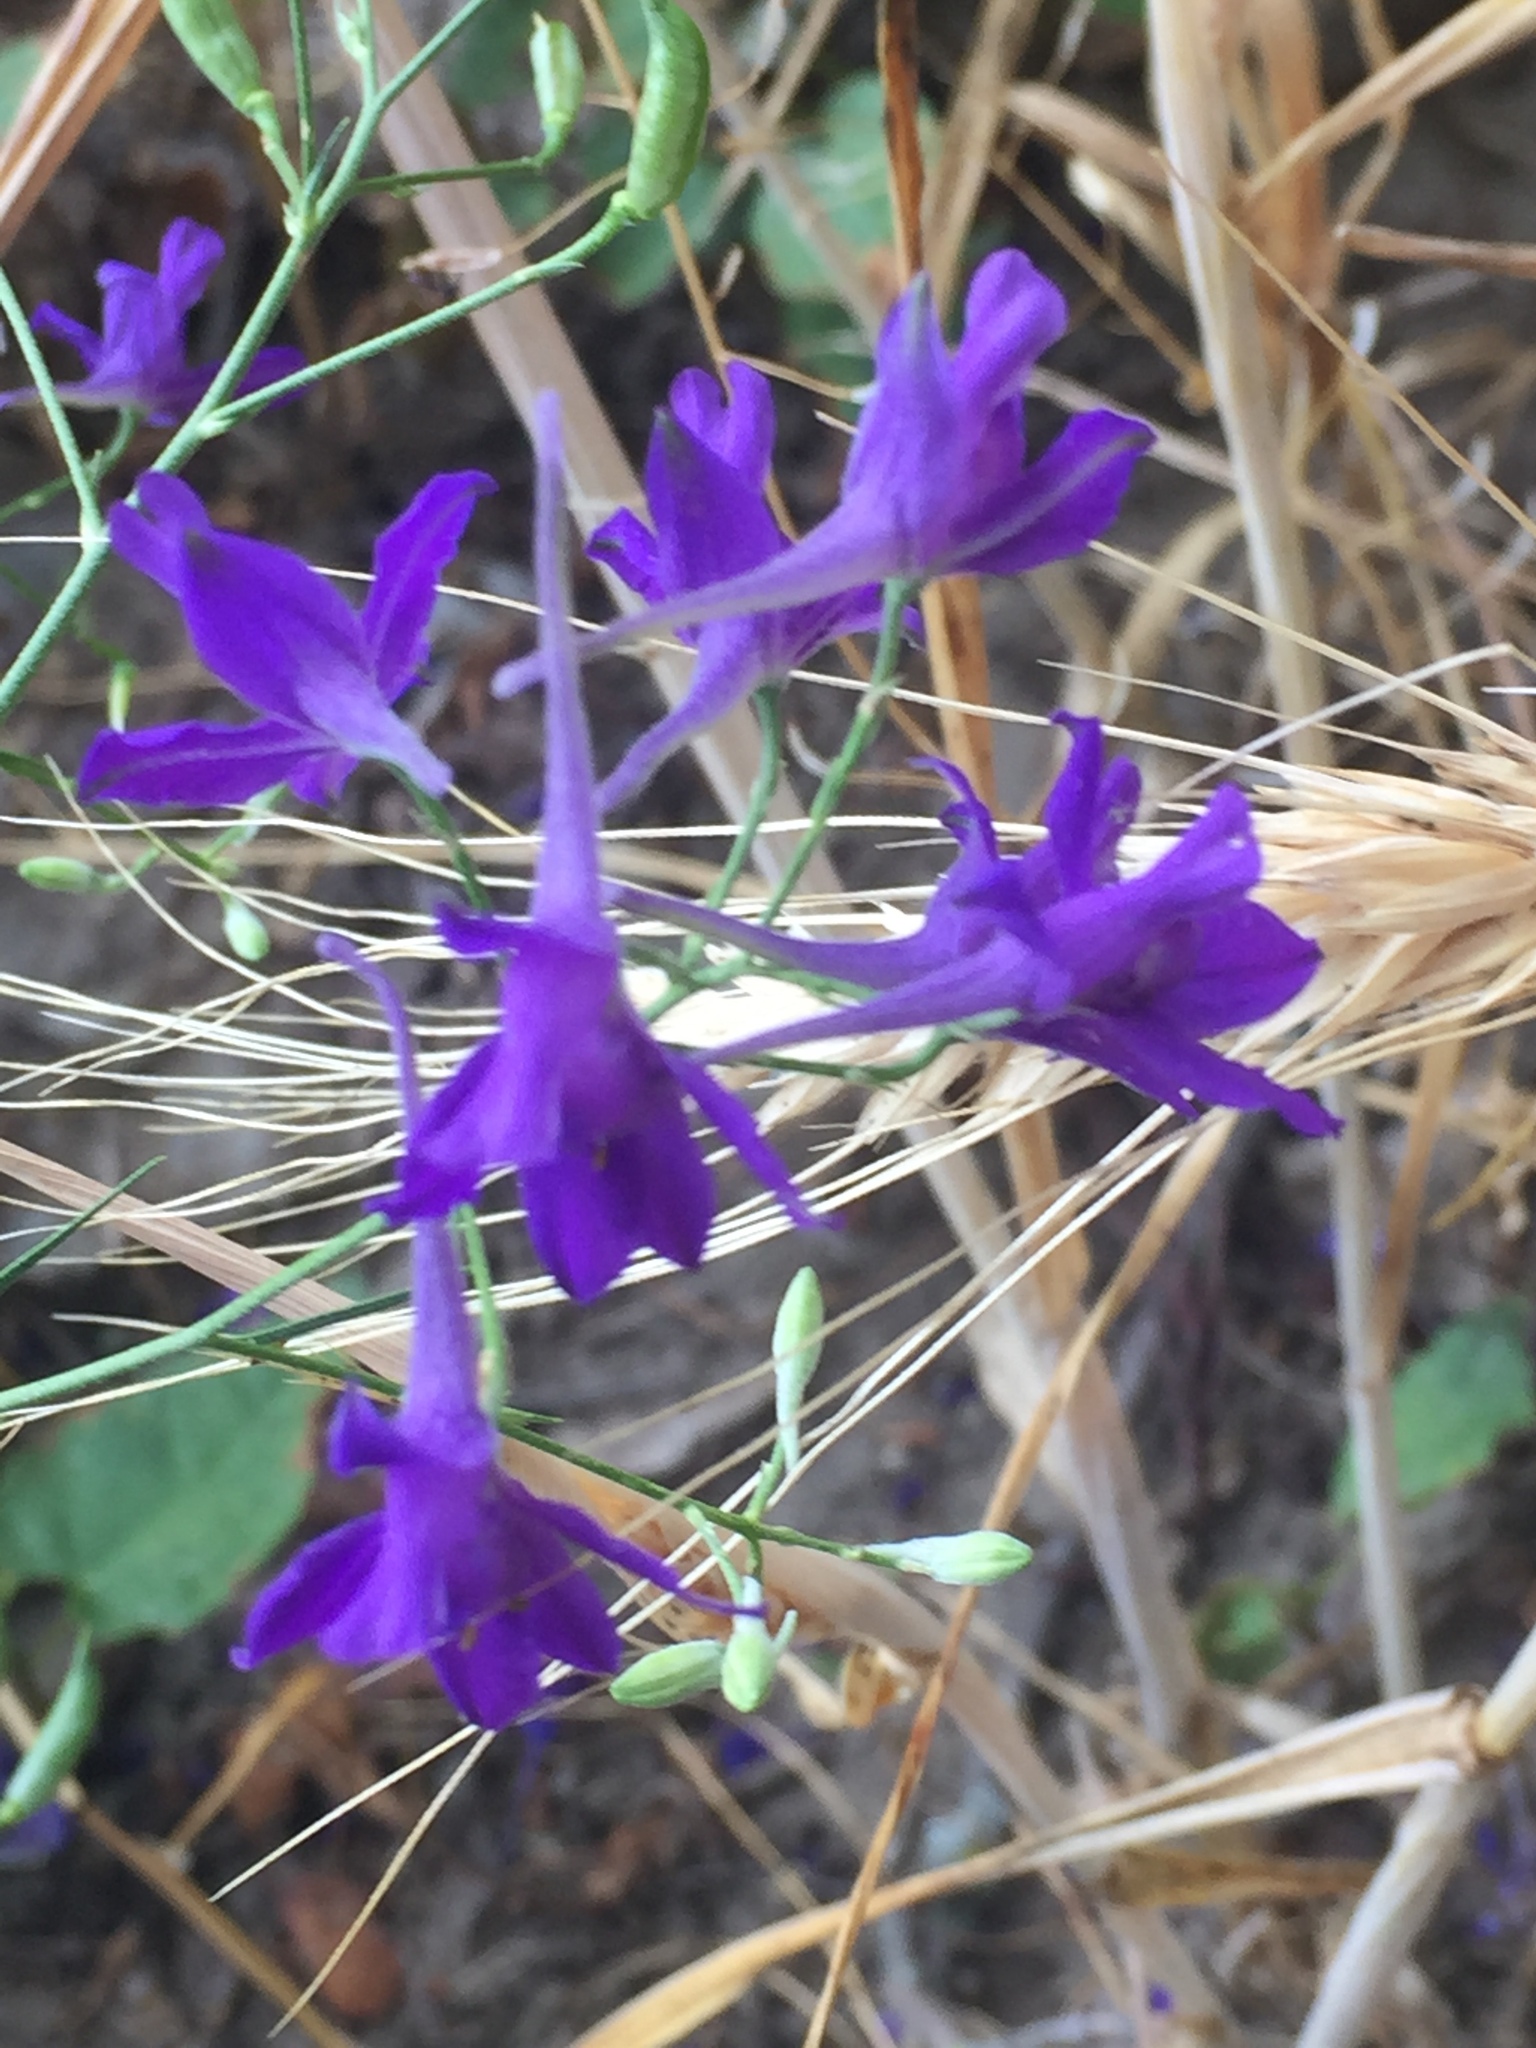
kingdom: Plantae
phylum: Tracheophyta
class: Magnoliopsida
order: Ranunculales
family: Ranunculaceae
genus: Delphinium
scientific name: Delphinium consolida
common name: Branching larkspur
